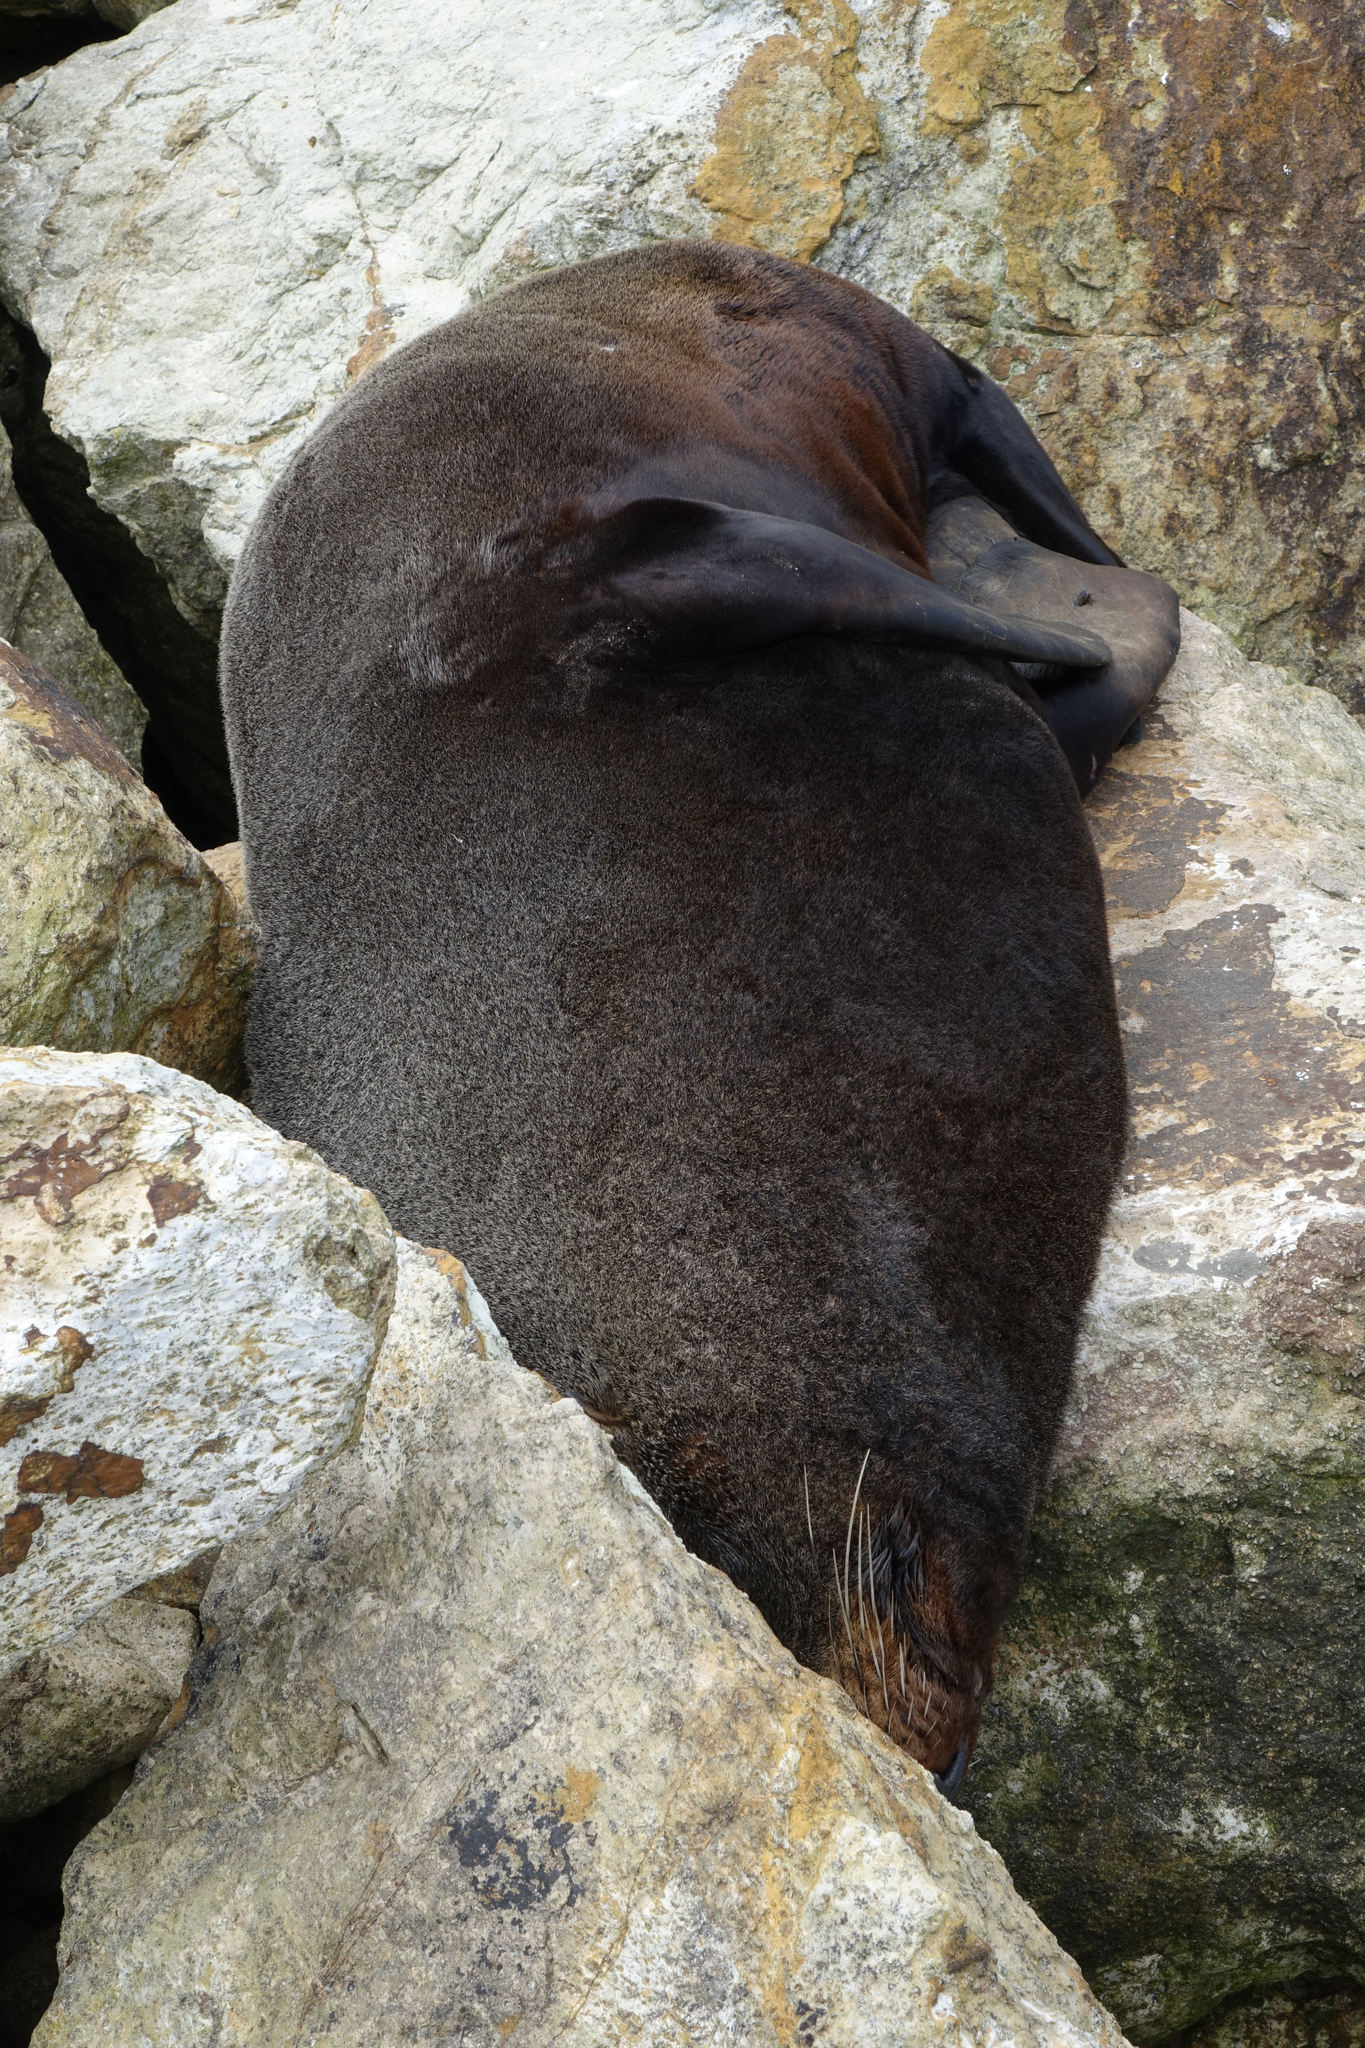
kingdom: Animalia
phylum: Chordata
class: Mammalia
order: Carnivora
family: Otariidae
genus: Arctocephalus
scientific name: Arctocephalus forsteri
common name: New zealand fur seal
